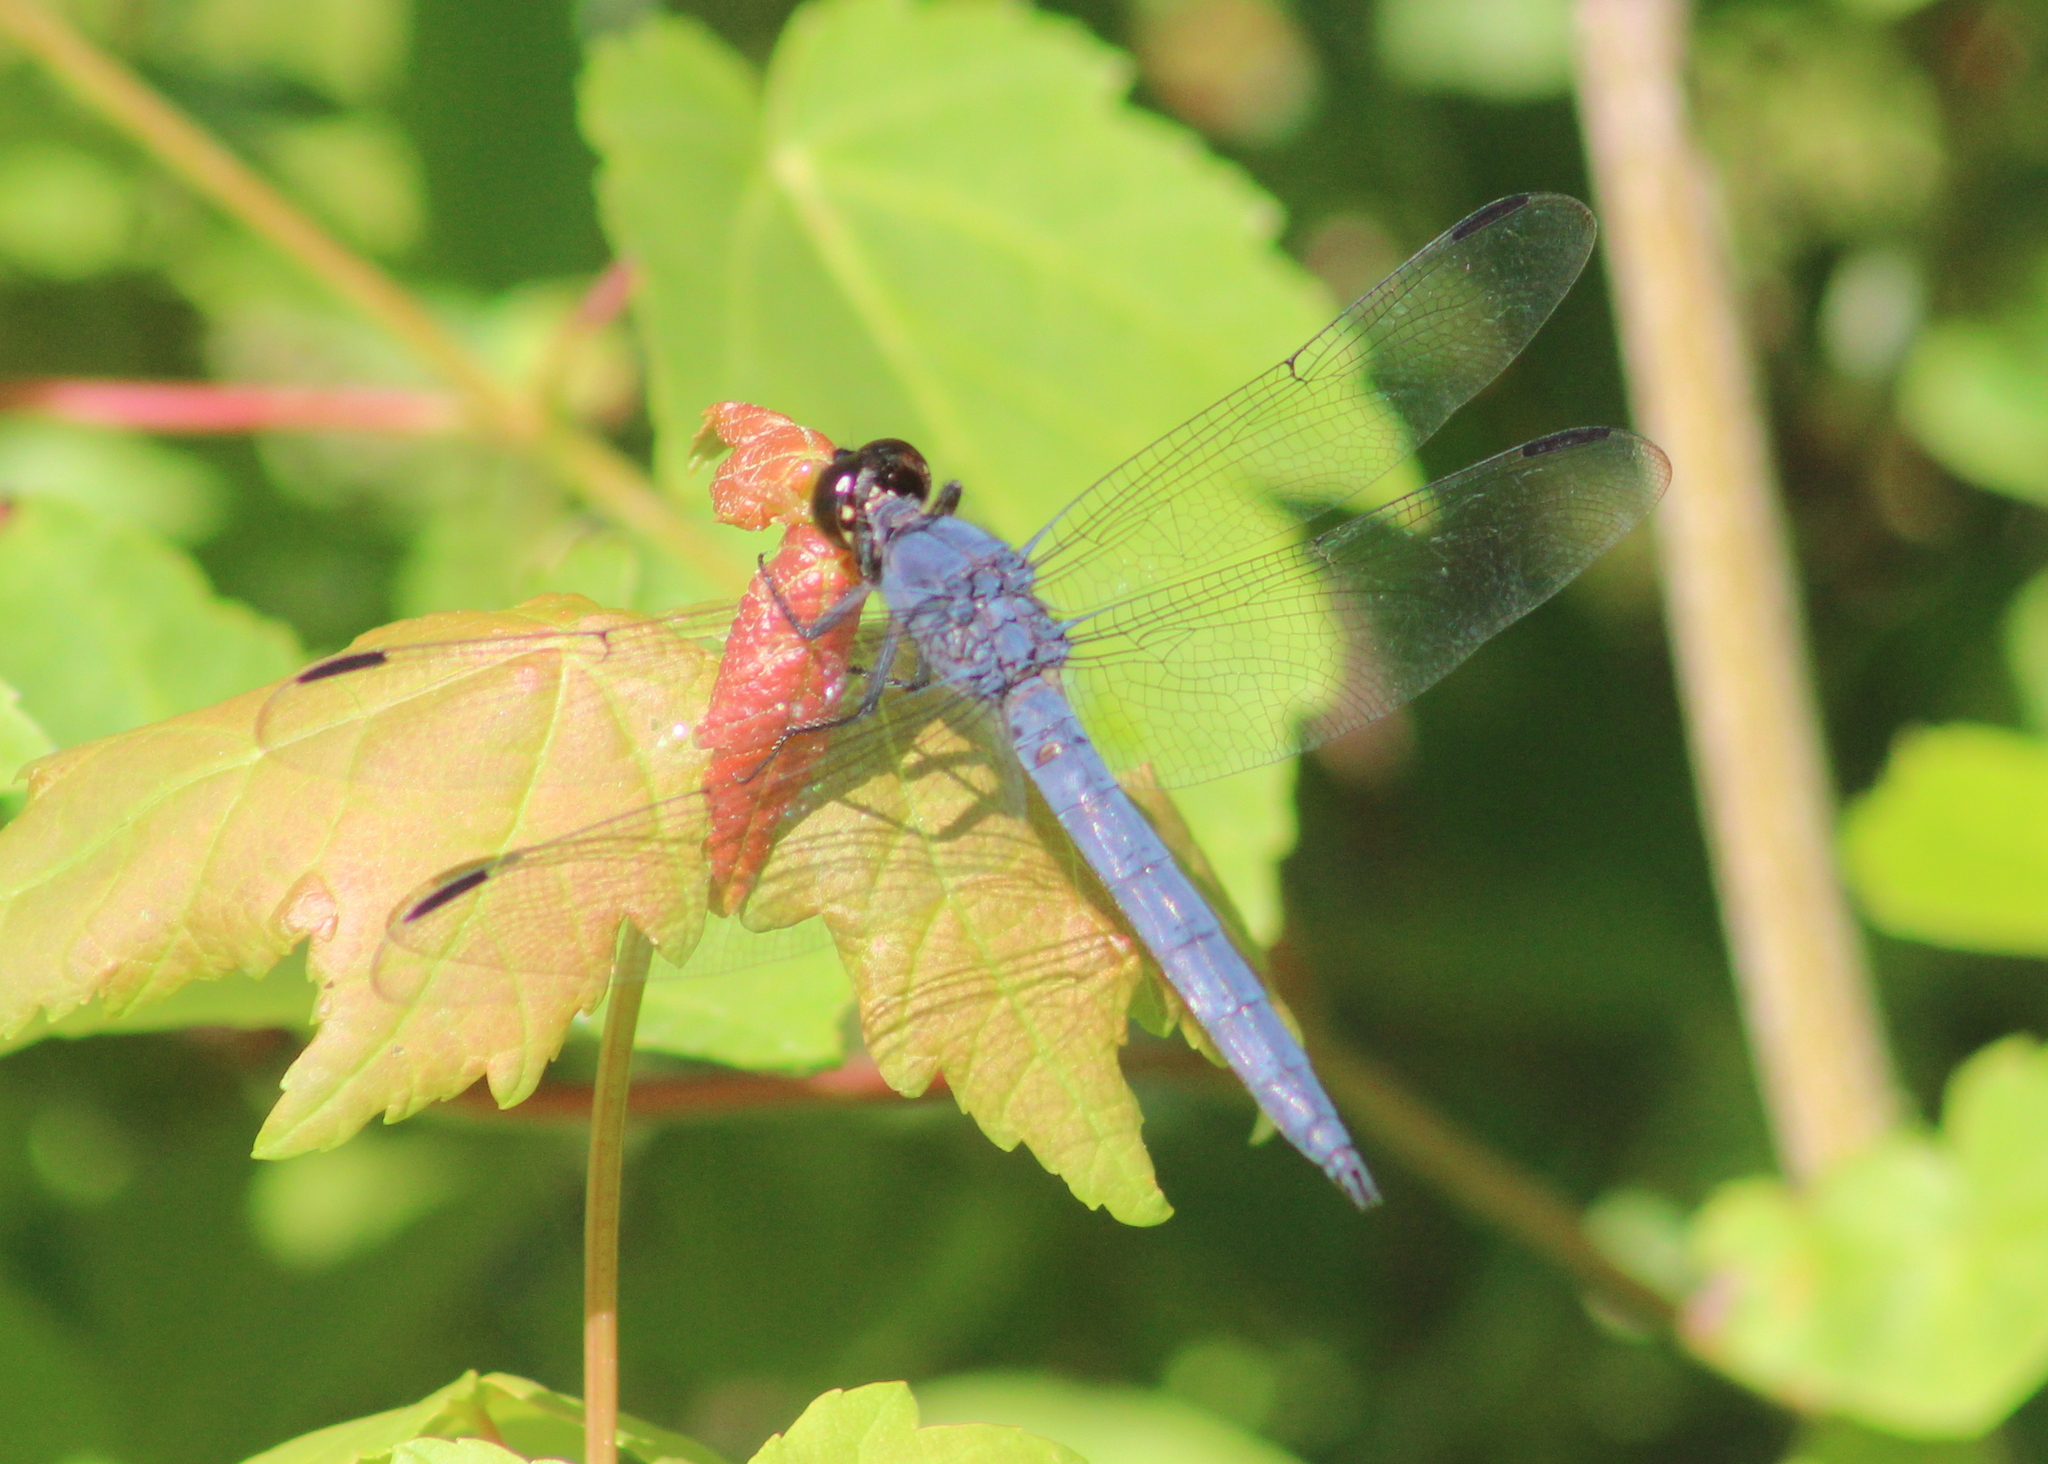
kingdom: Animalia
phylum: Arthropoda
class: Insecta
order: Odonata
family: Libellulidae
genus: Libellula
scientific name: Libellula incesta
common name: Slaty skimmer
